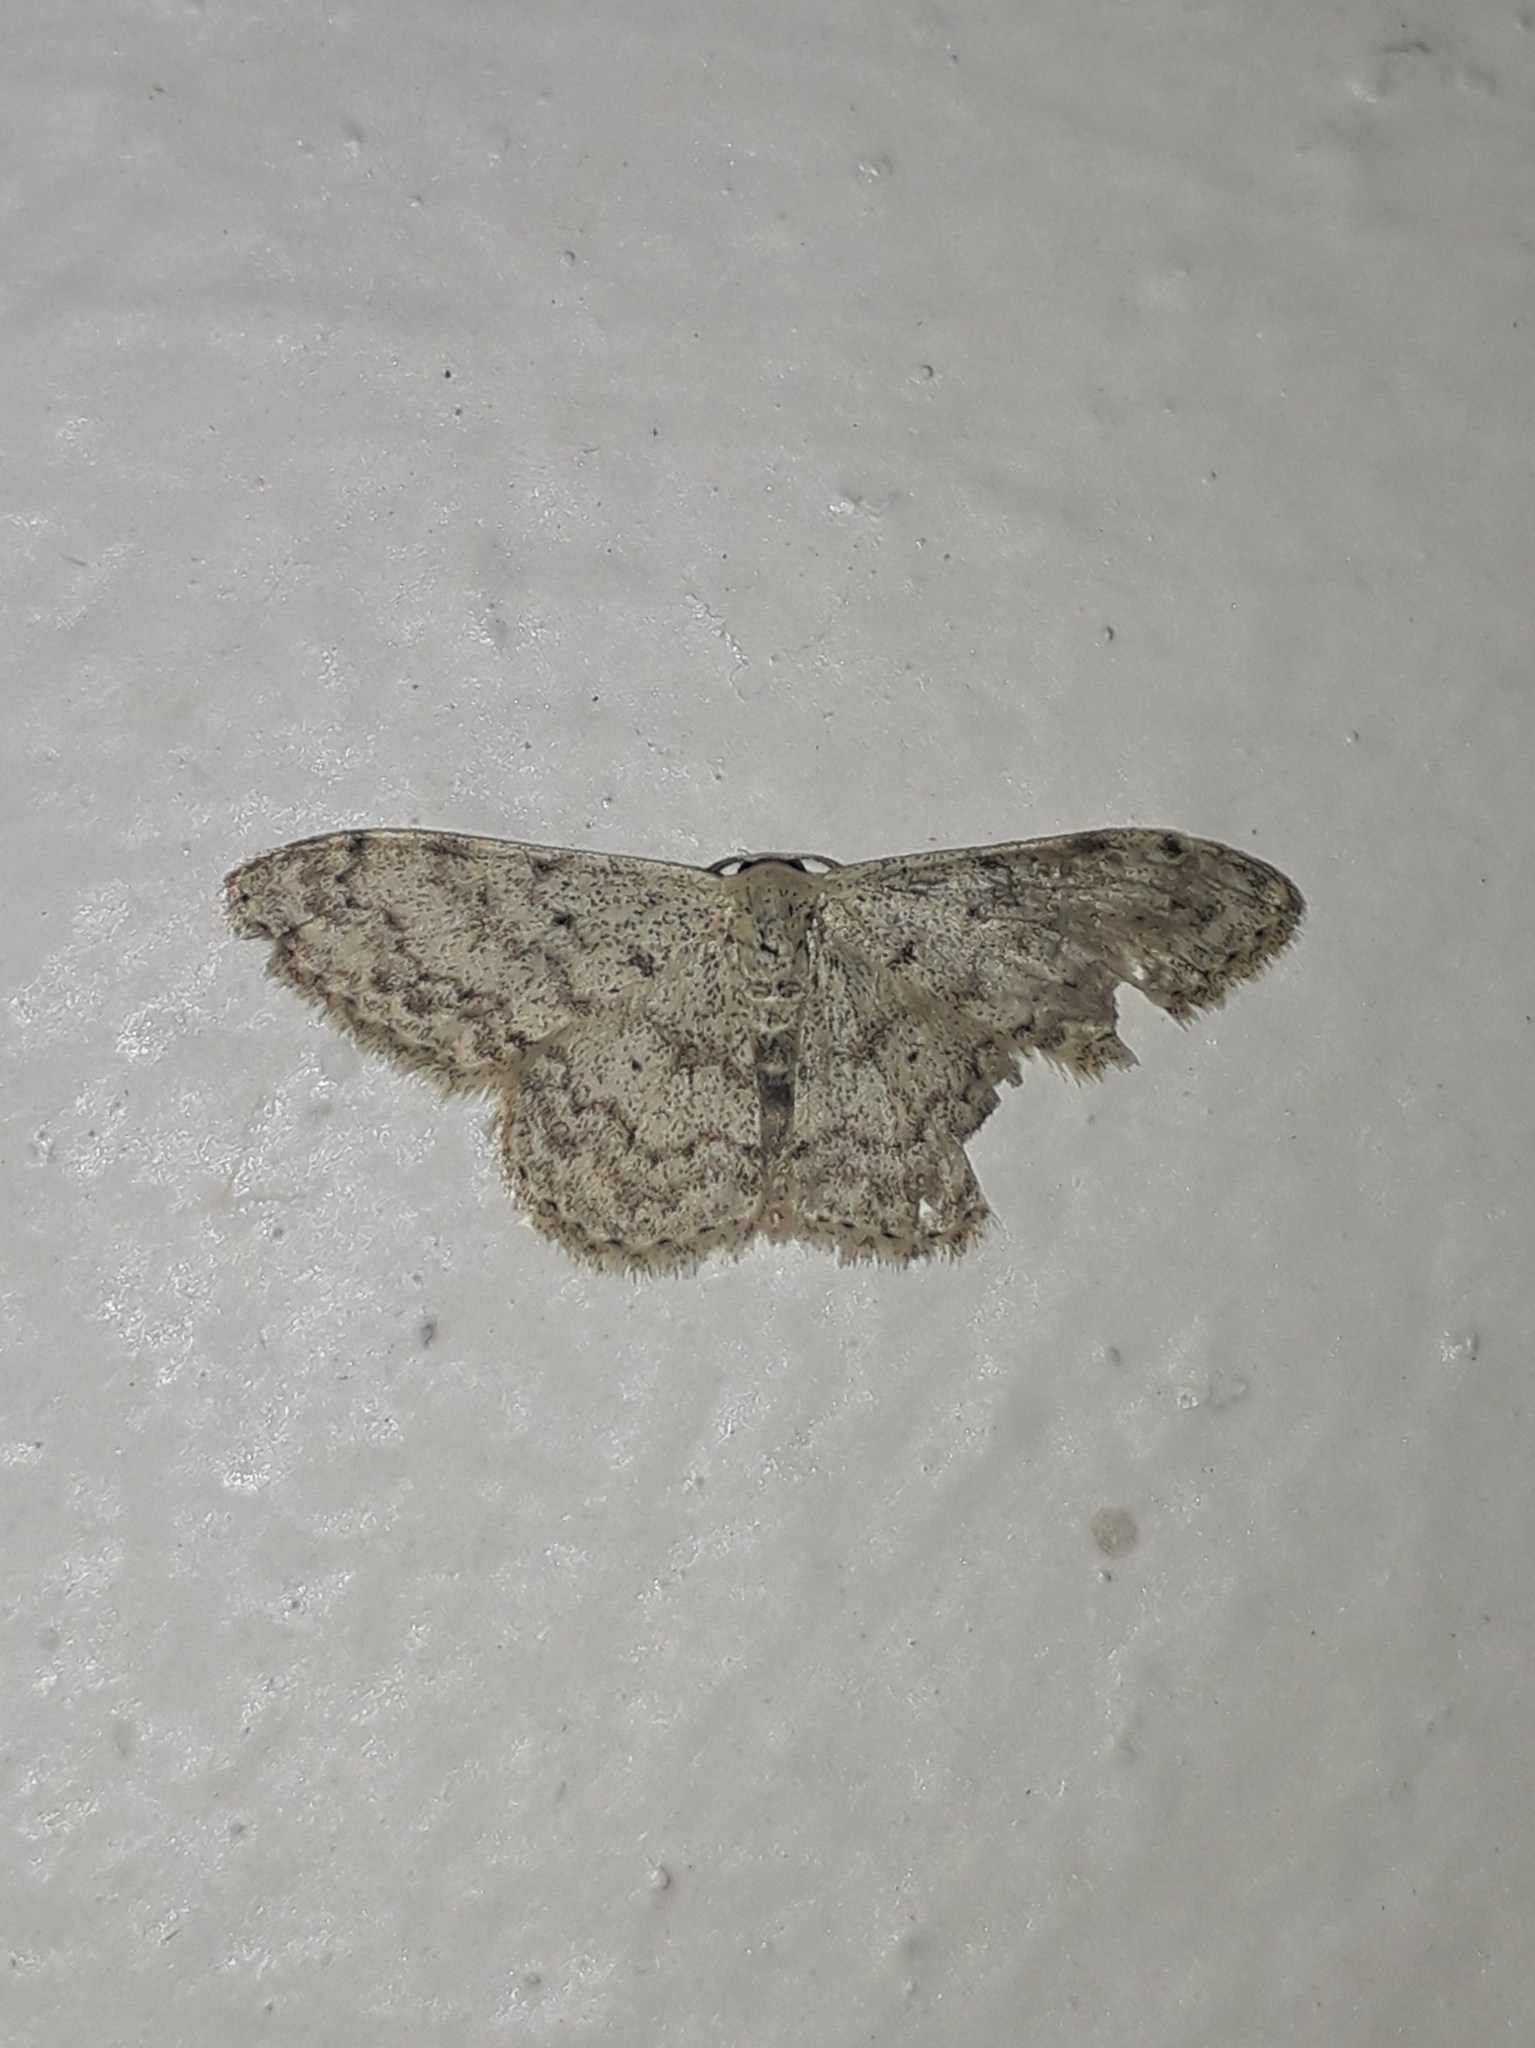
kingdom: Animalia
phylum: Arthropoda
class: Insecta
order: Lepidoptera
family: Geometridae
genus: Scopula
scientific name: Scopula marginepunctata
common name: Mullein wave
